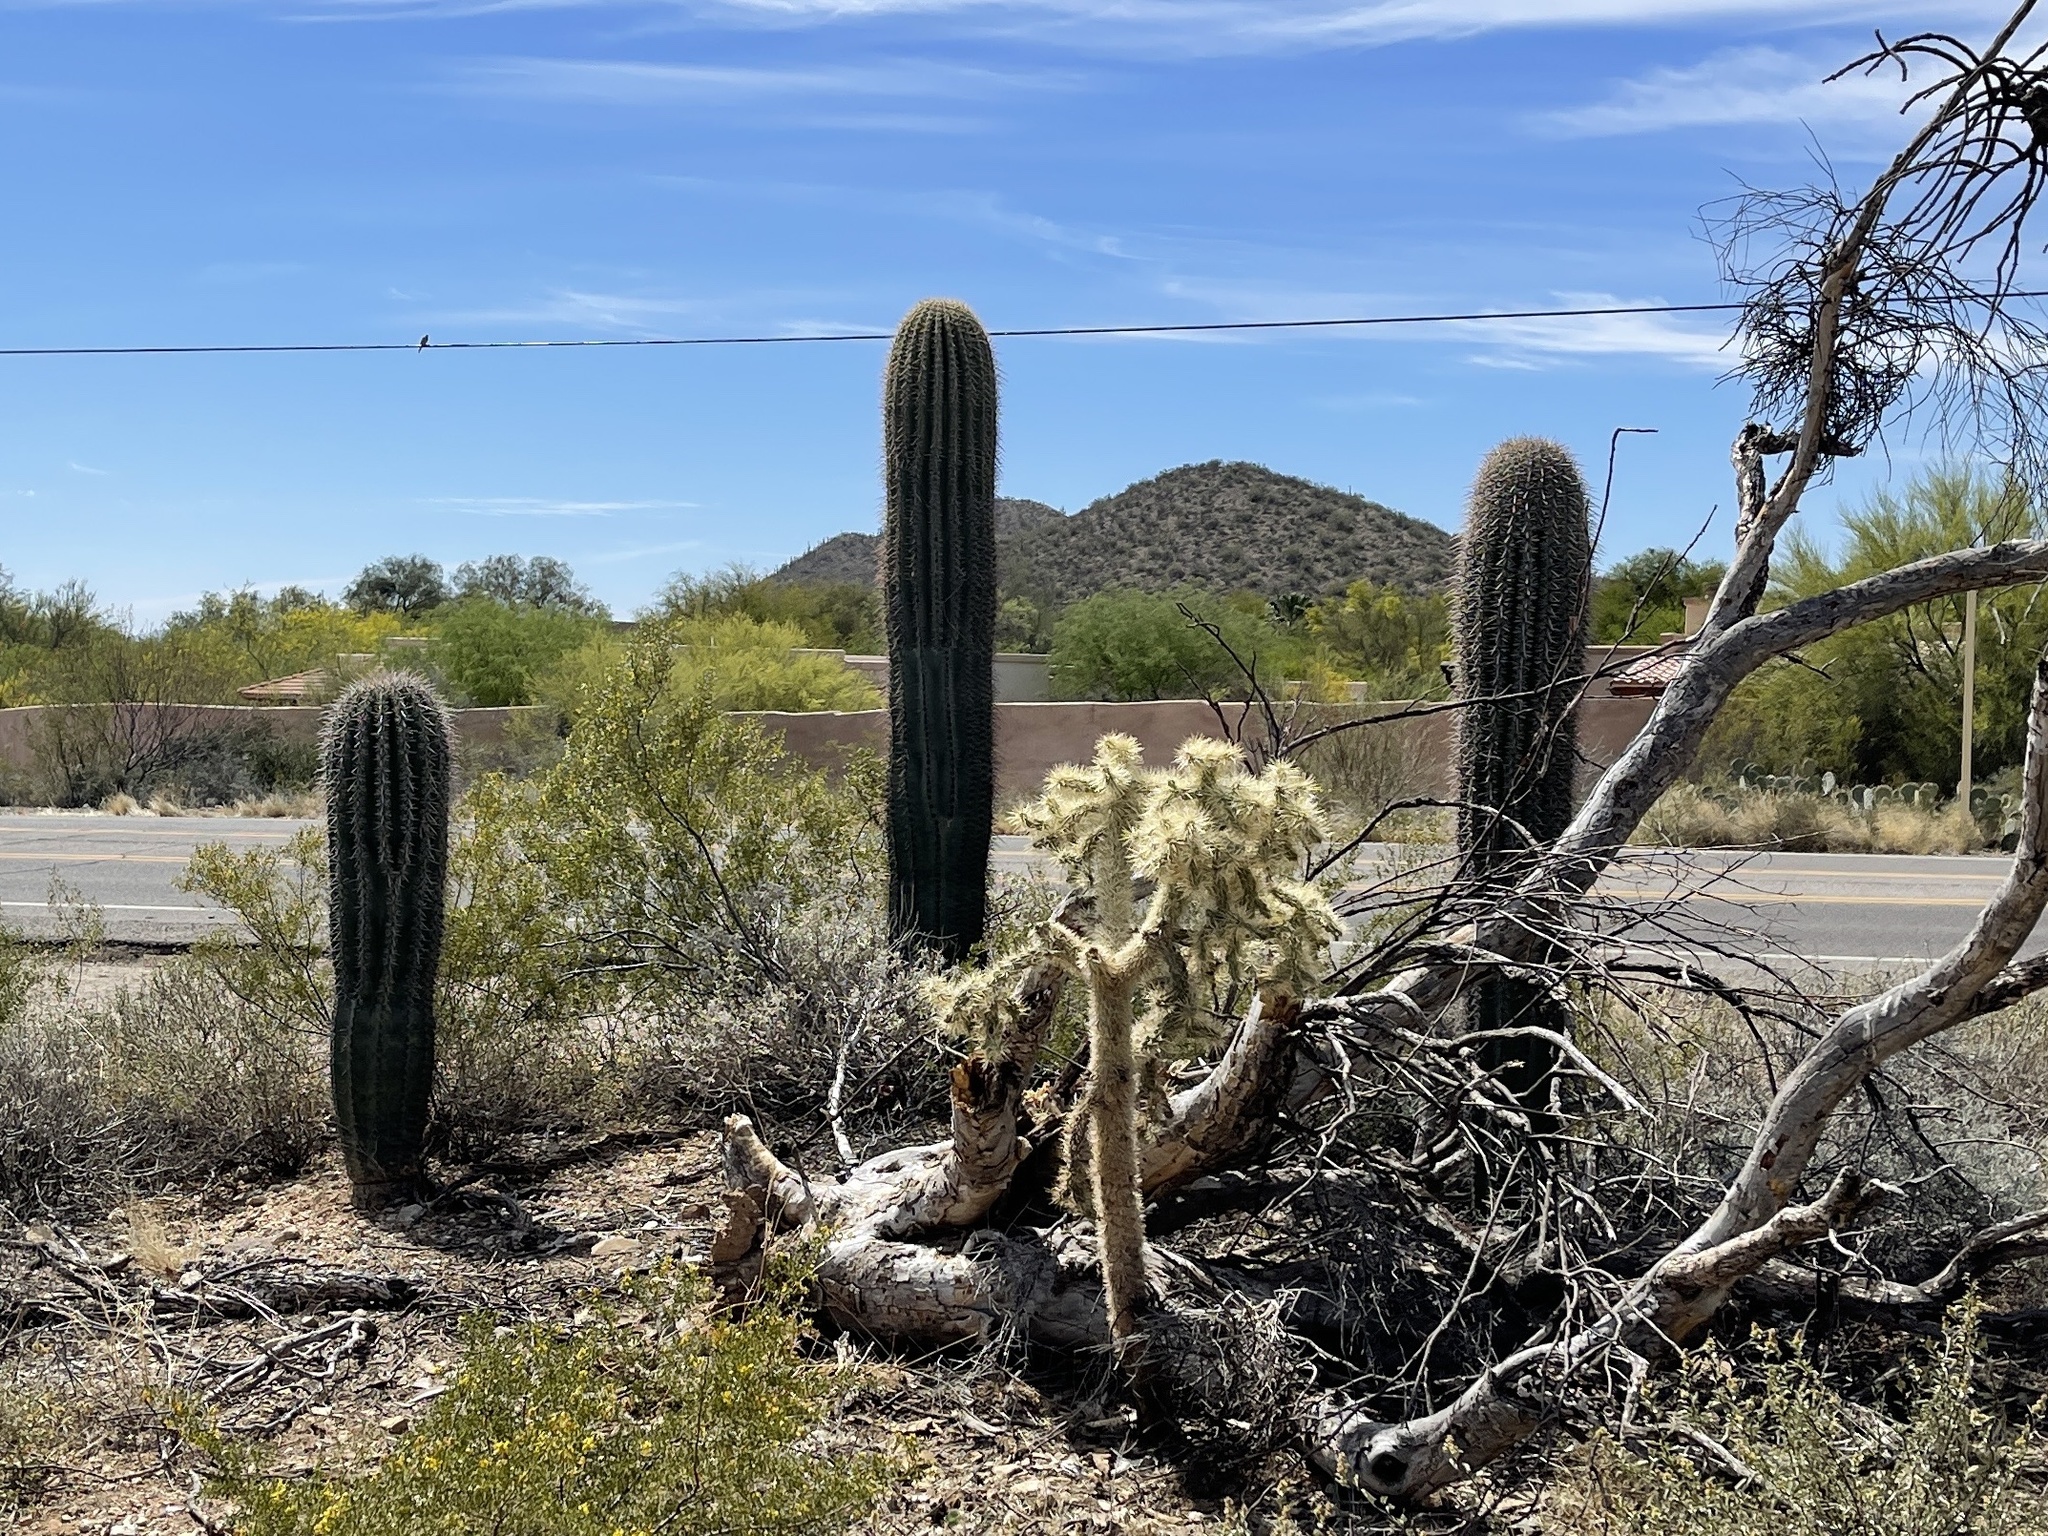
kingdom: Plantae
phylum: Tracheophyta
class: Magnoliopsida
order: Caryophyllales
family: Cactaceae
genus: Carnegiea
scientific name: Carnegiea gigantea
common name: Saguaro
